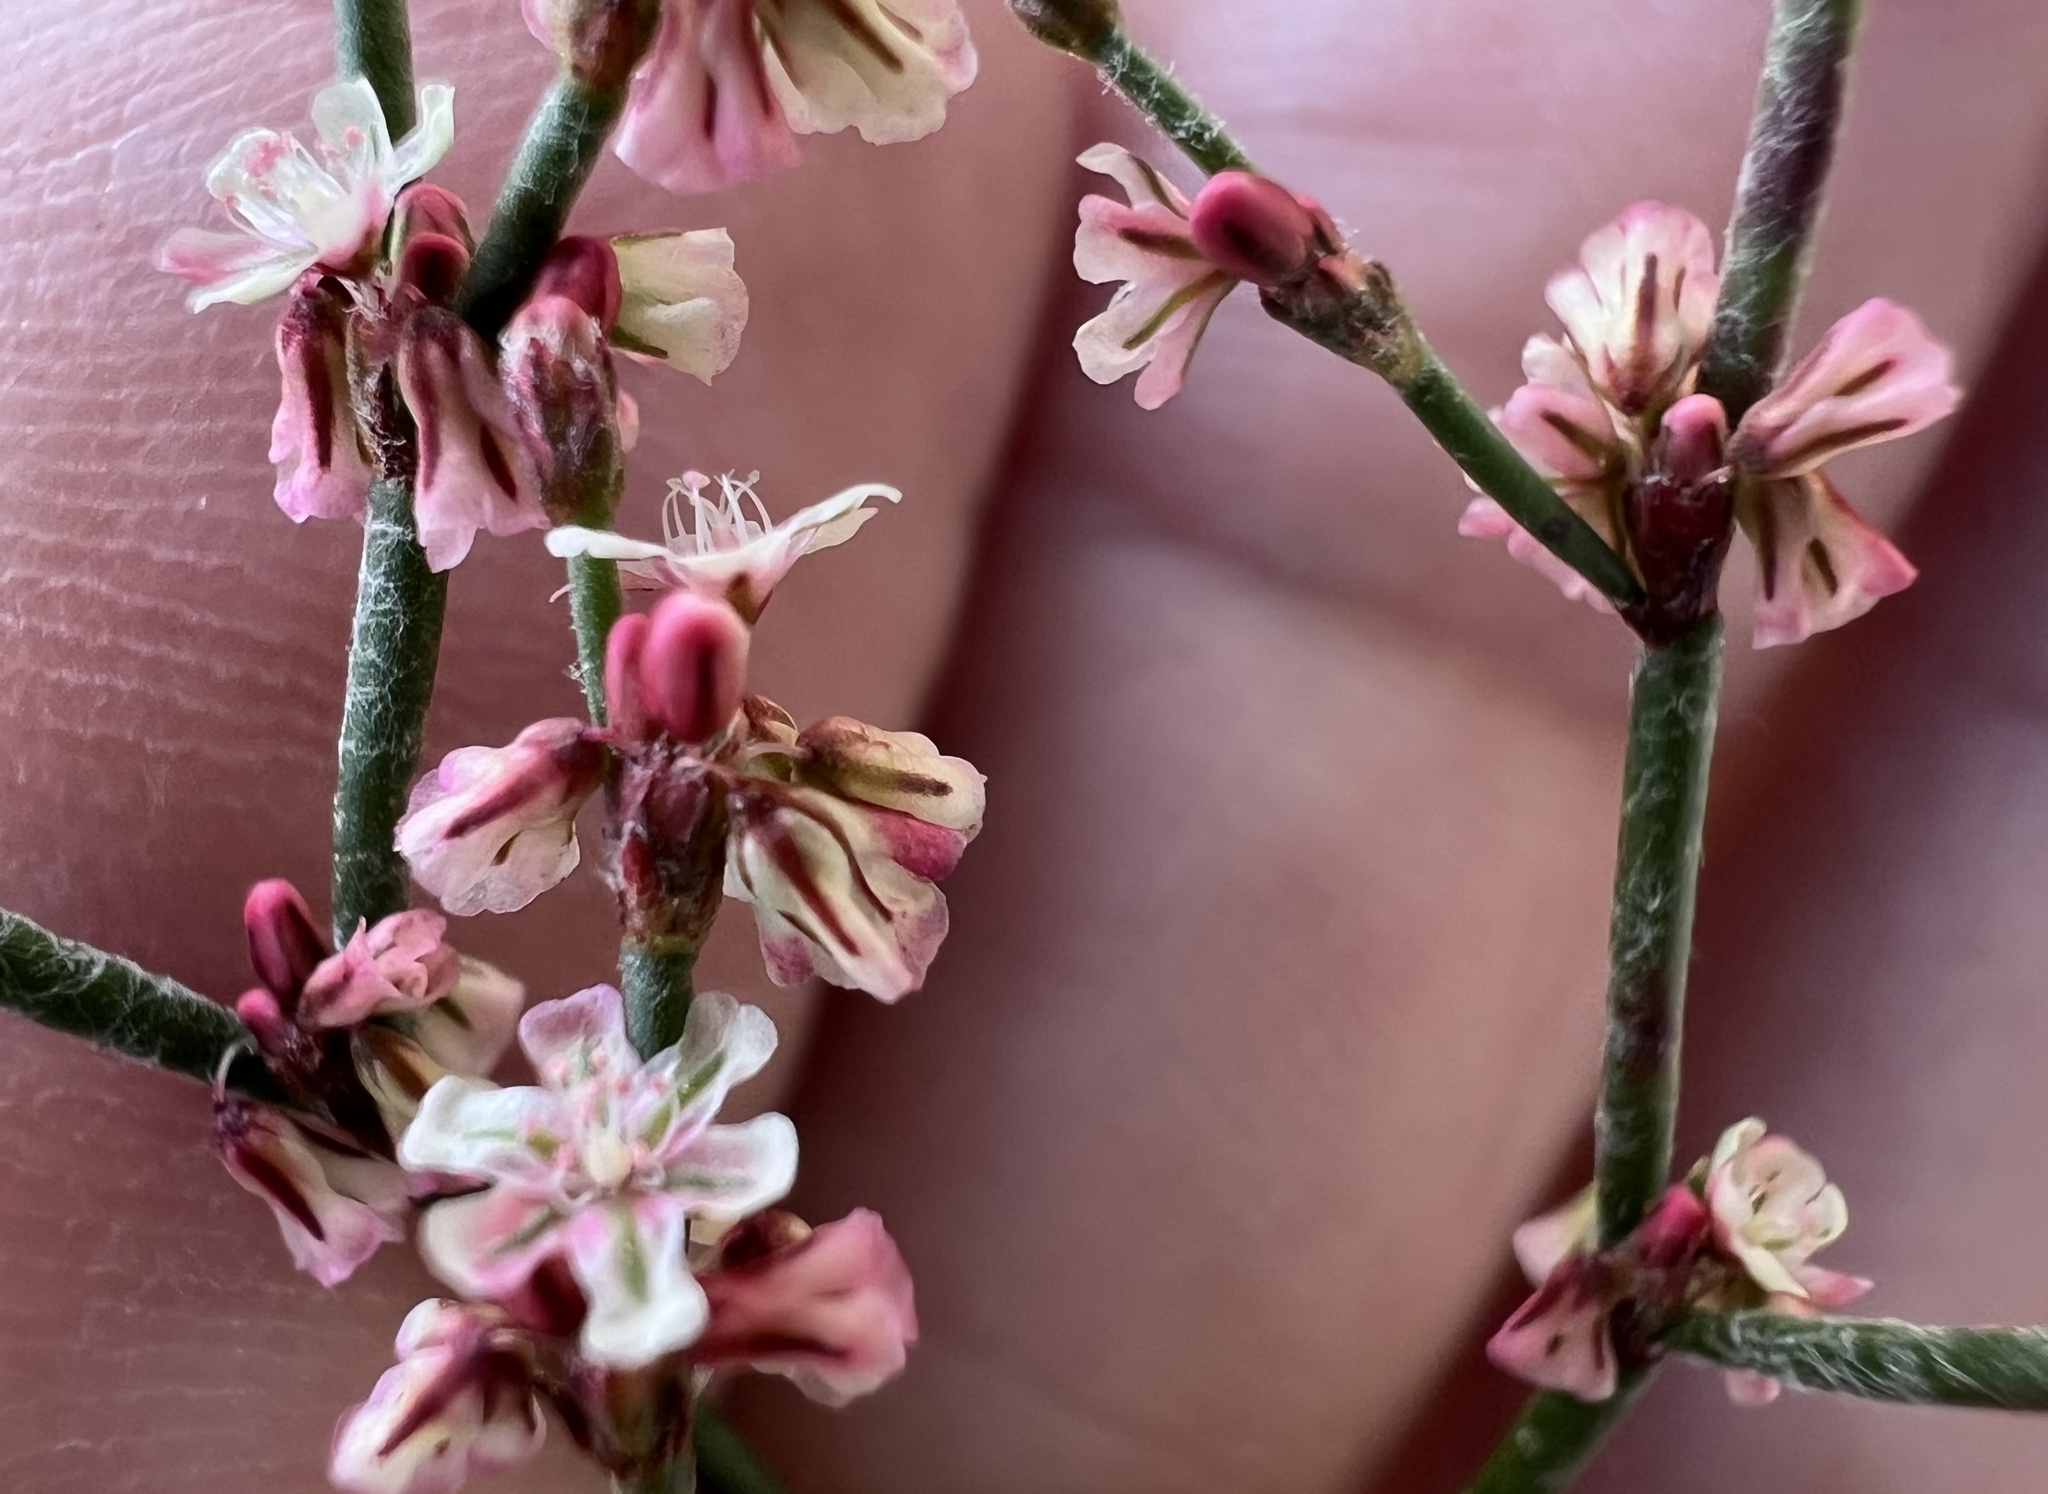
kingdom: Plantae
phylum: Tracheophyta
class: Magnoliopsida
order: Caryophyllales
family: Polygonaceae
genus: Eriogonum
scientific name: Eriogonum palmerianum
